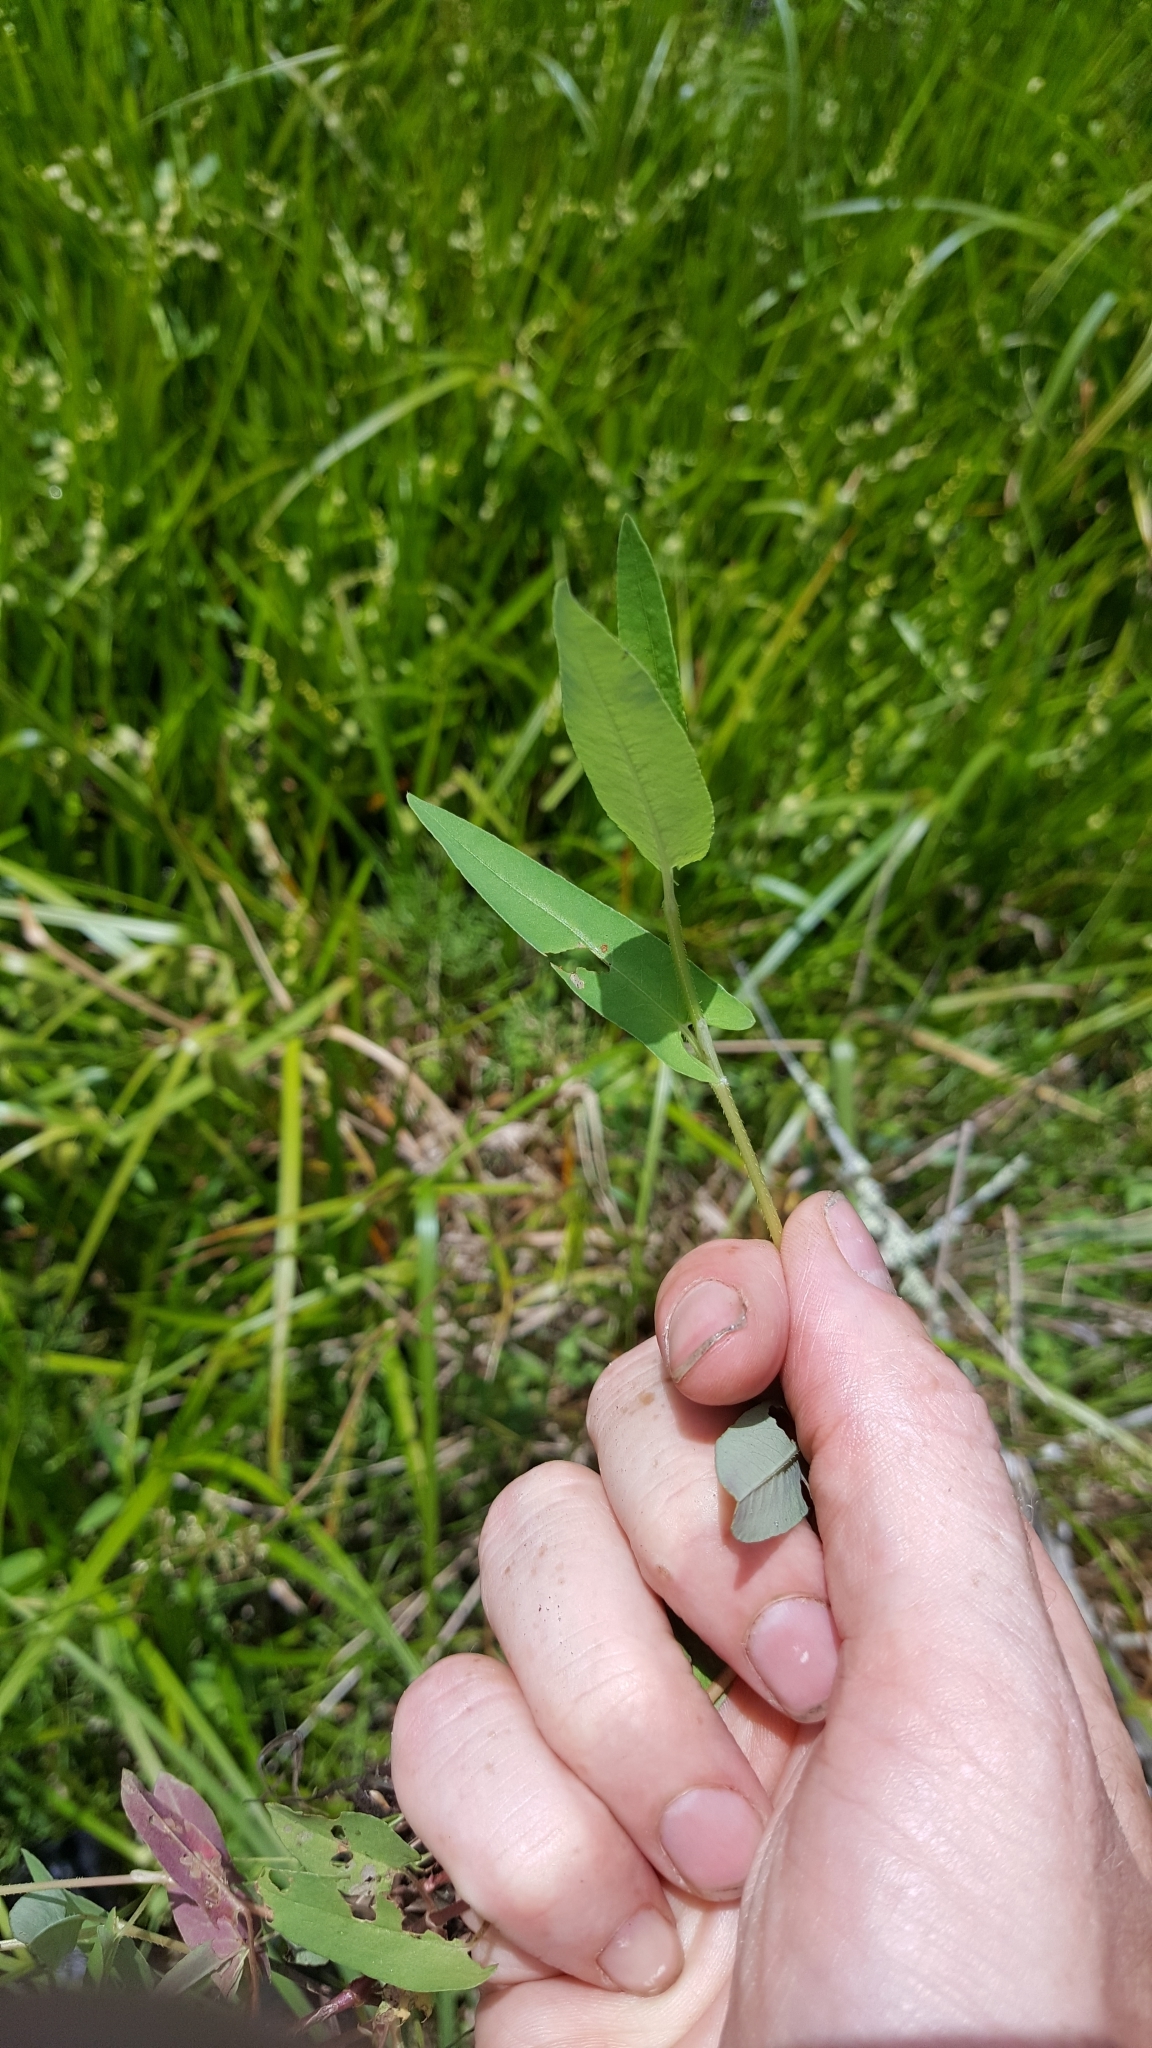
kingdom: Plantae
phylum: Tracheophyta
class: Magnoliopsida
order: Caryophyllales
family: Polygonaceae
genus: Persicaria
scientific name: Persicaria sagittata
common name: American tearthumb
